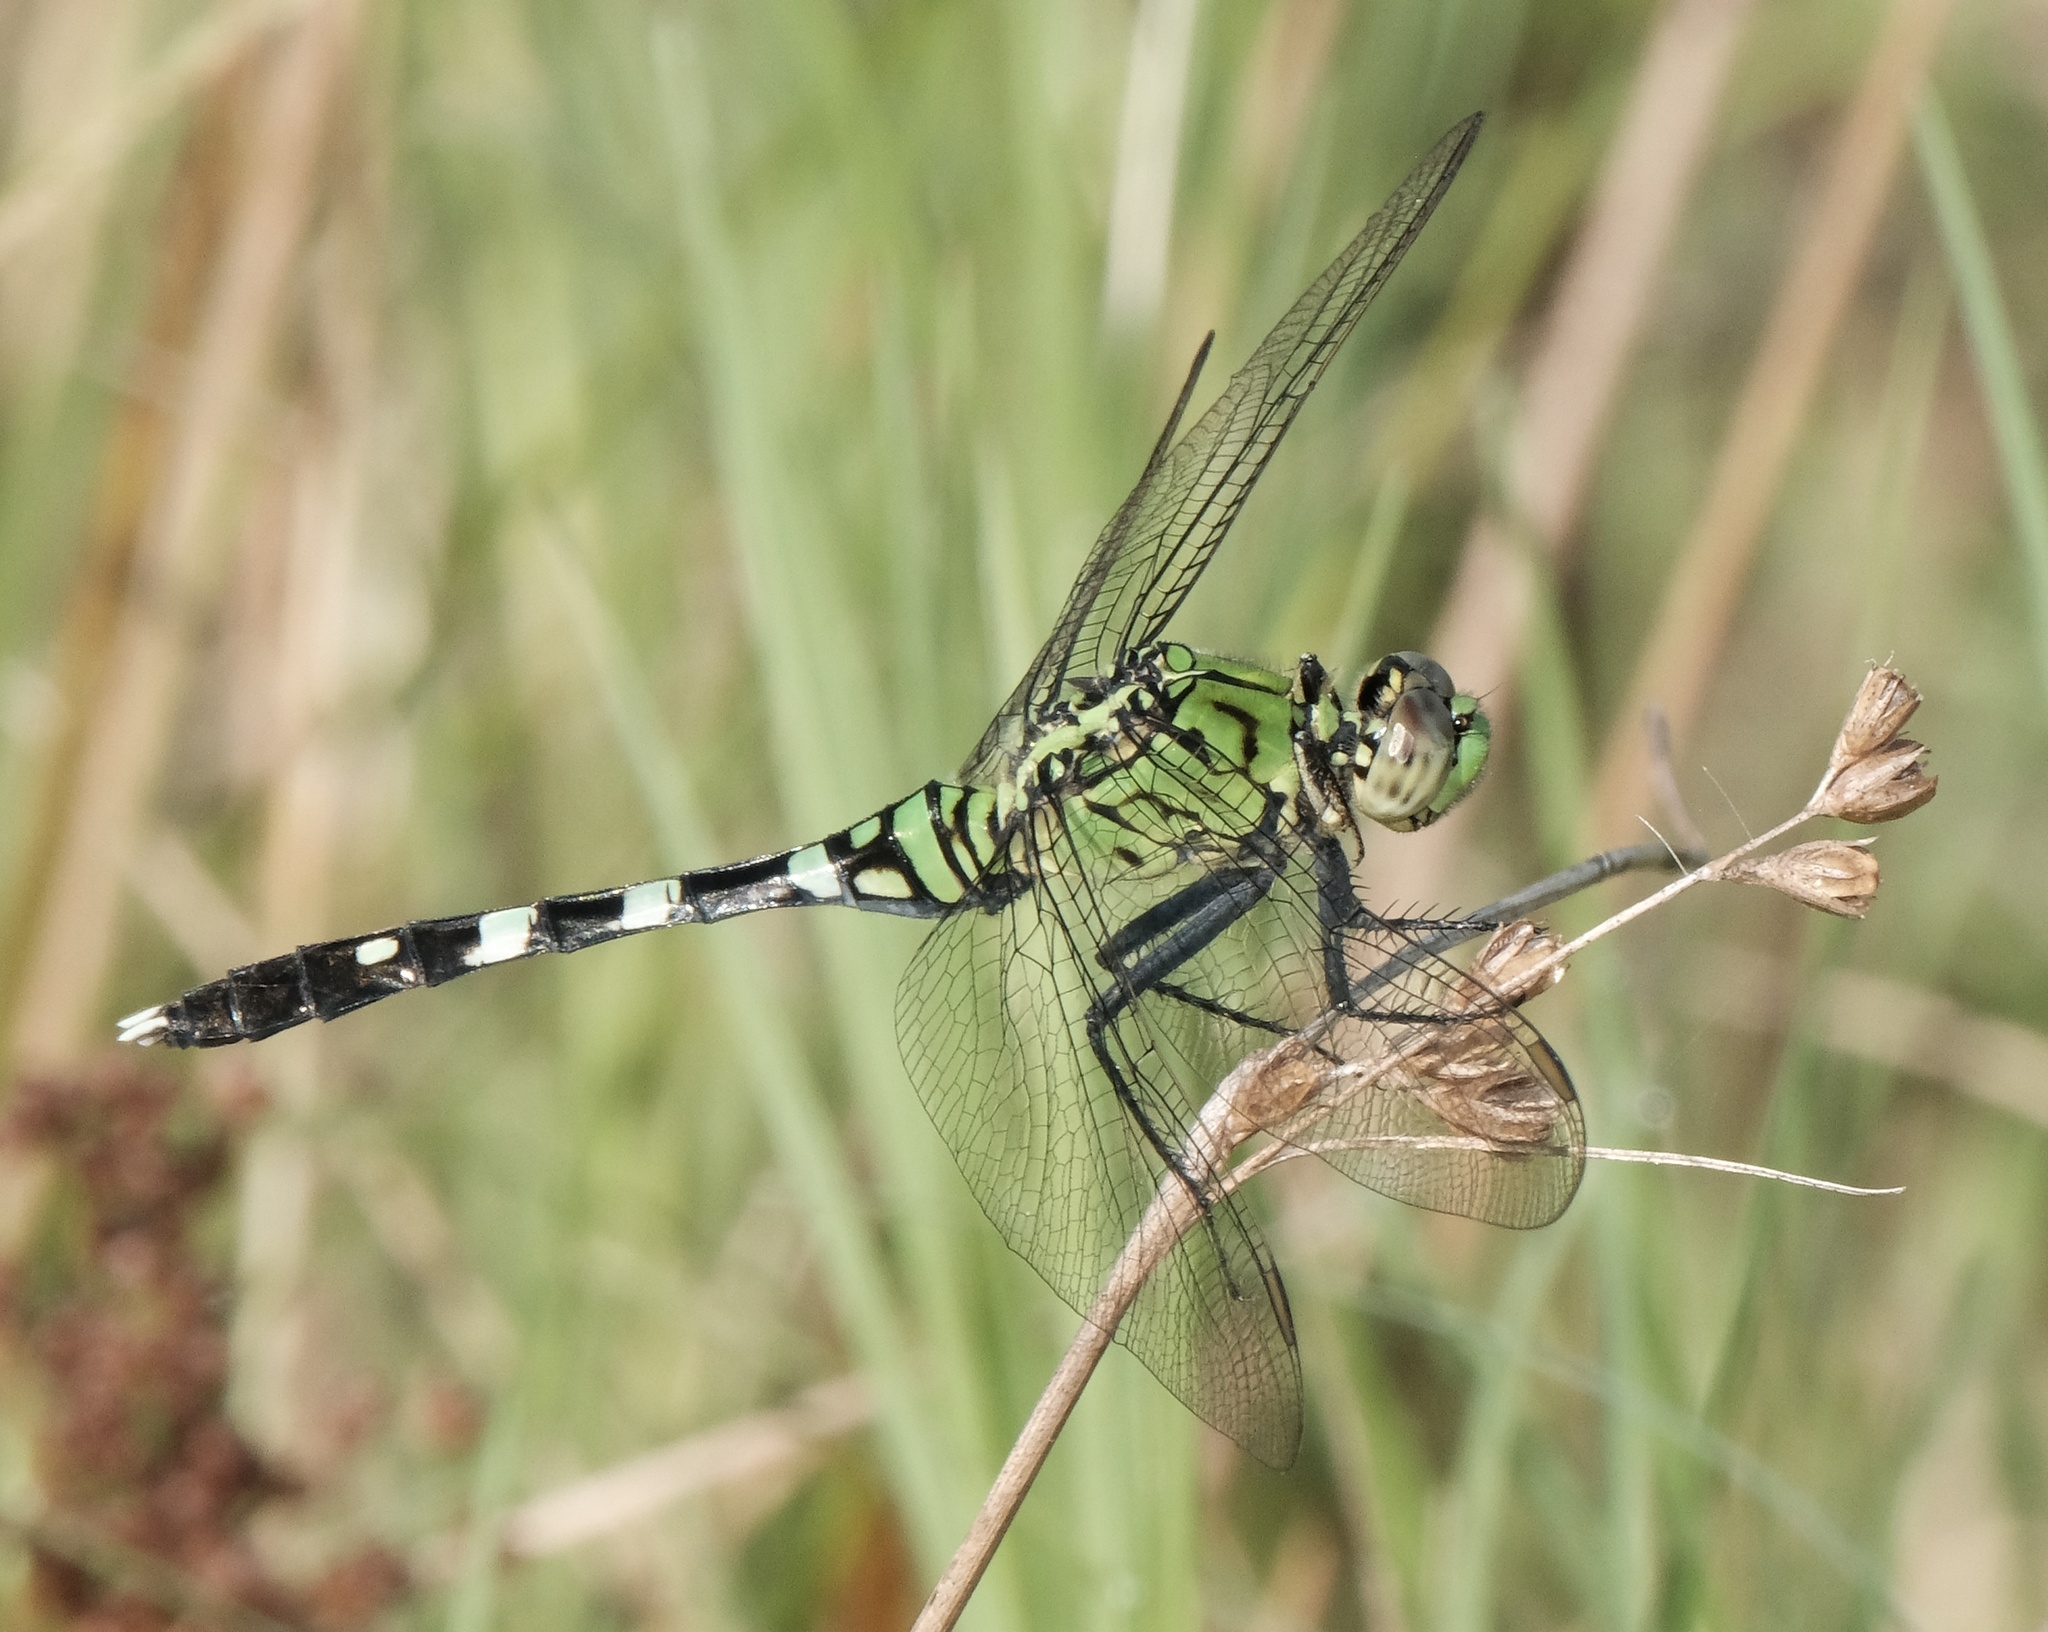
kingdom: Animalia
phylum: Arthropoda
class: Insecta
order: Odonata
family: Libellulidae
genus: Erythemis
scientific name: Erythemis simplicicollis
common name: Eastern pondhawk
